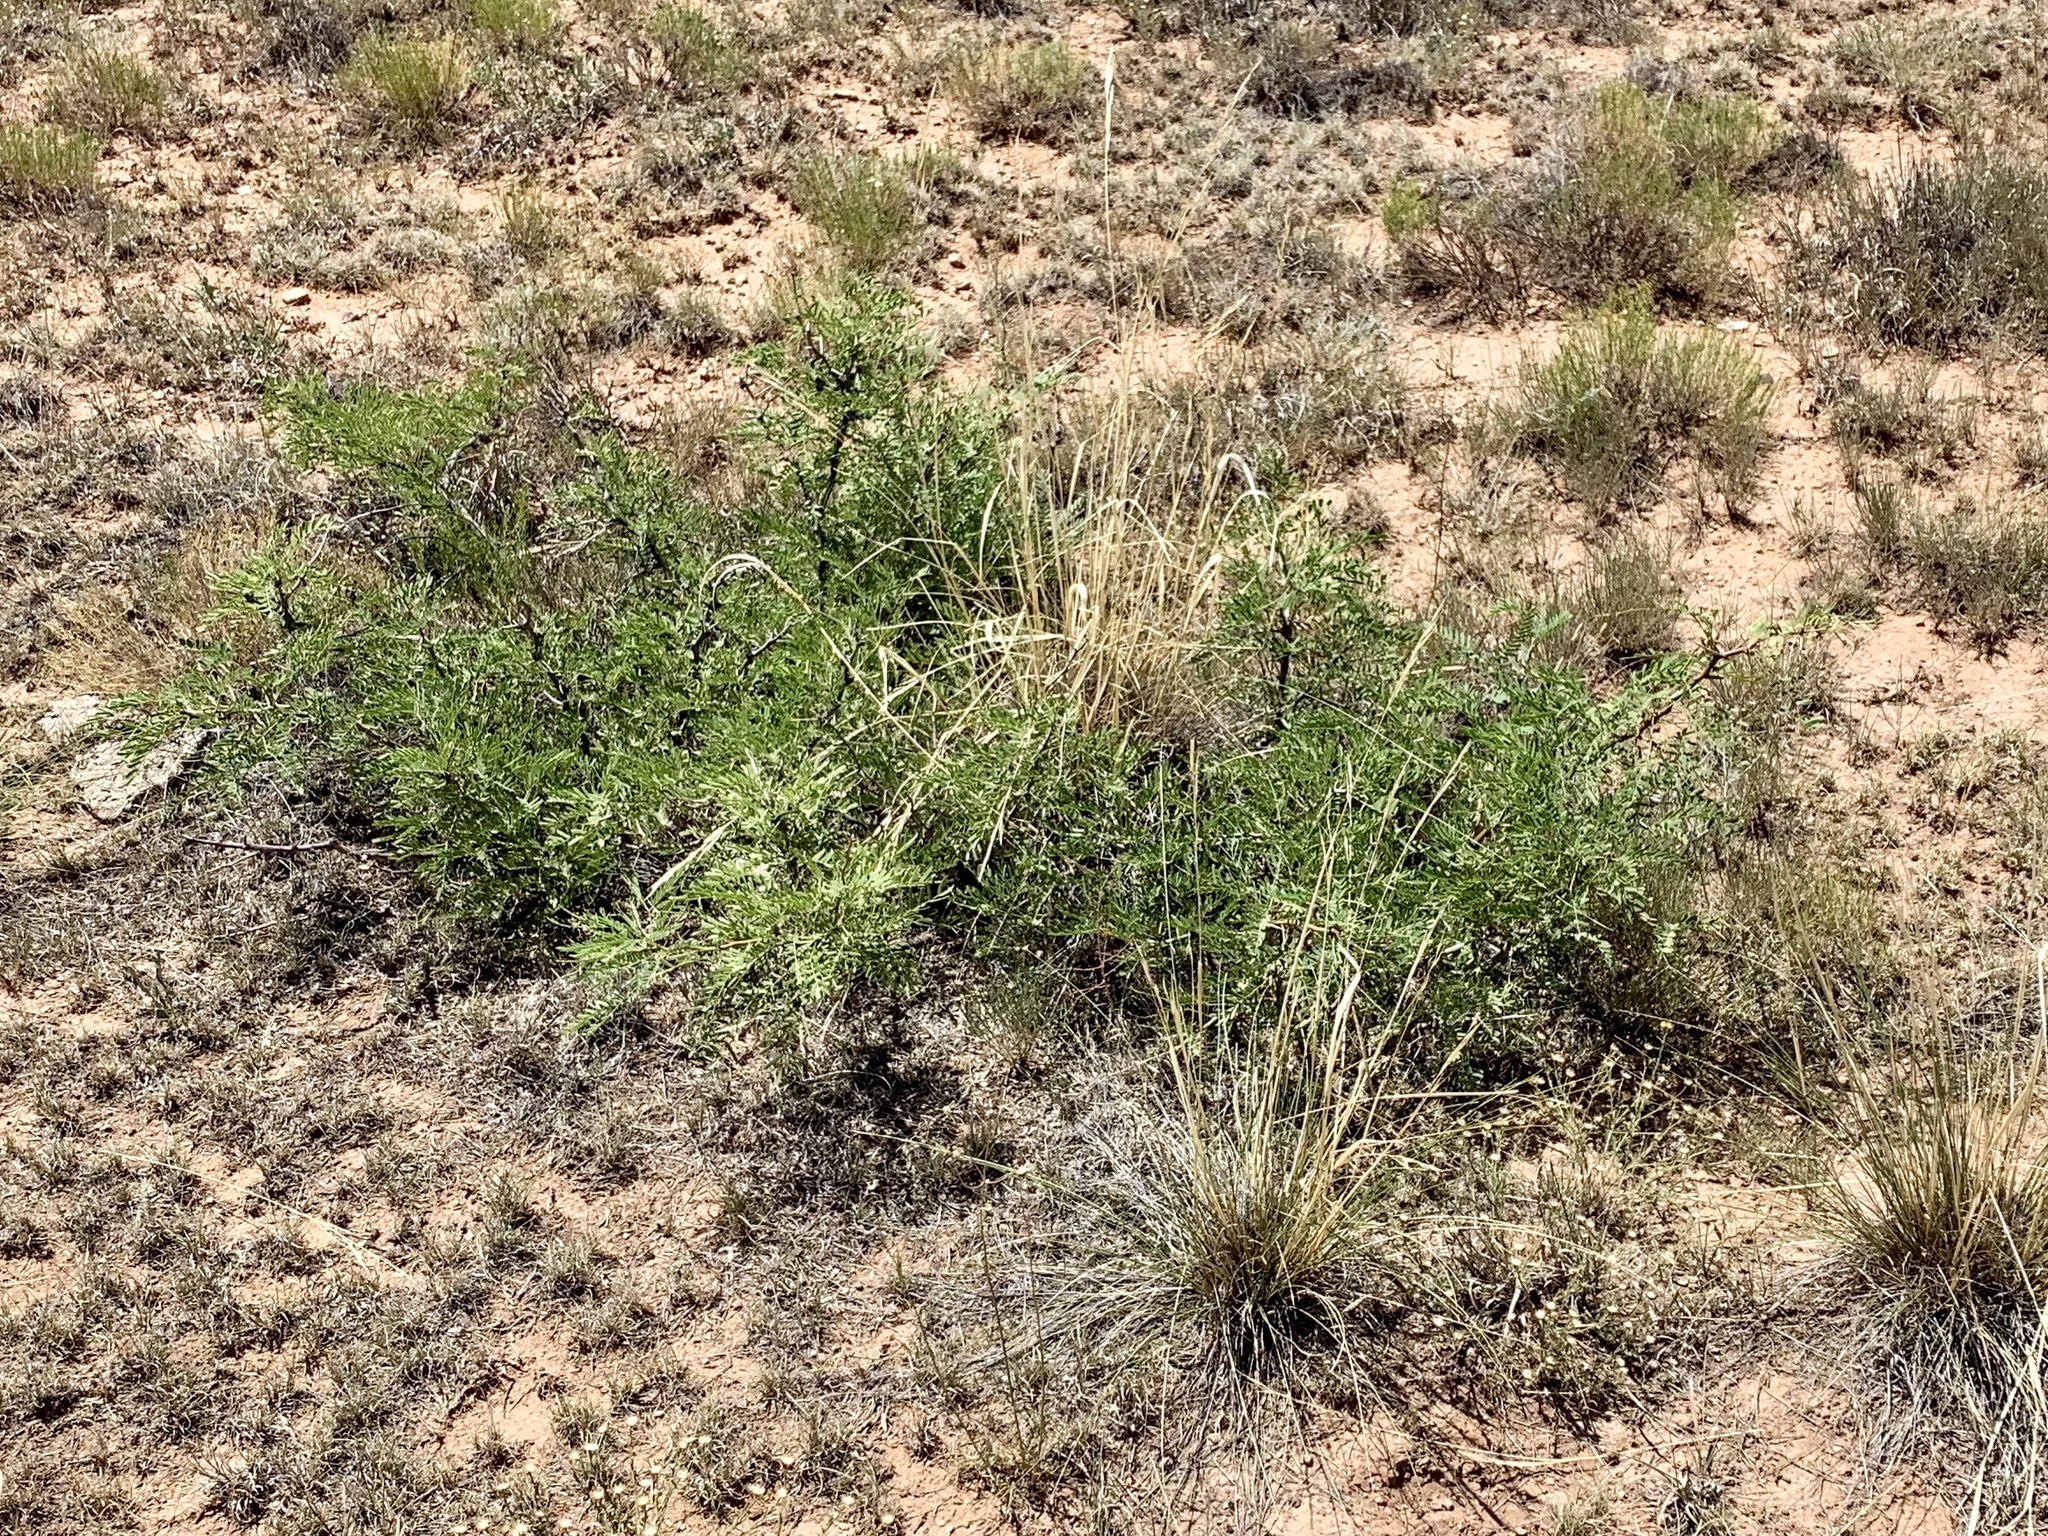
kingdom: Plantae
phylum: Tracheophyta
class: Magnoliopsida
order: Fabales
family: Fabaceae
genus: Prosopis
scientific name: Prosopis glandulosa
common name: Honey mesquite
